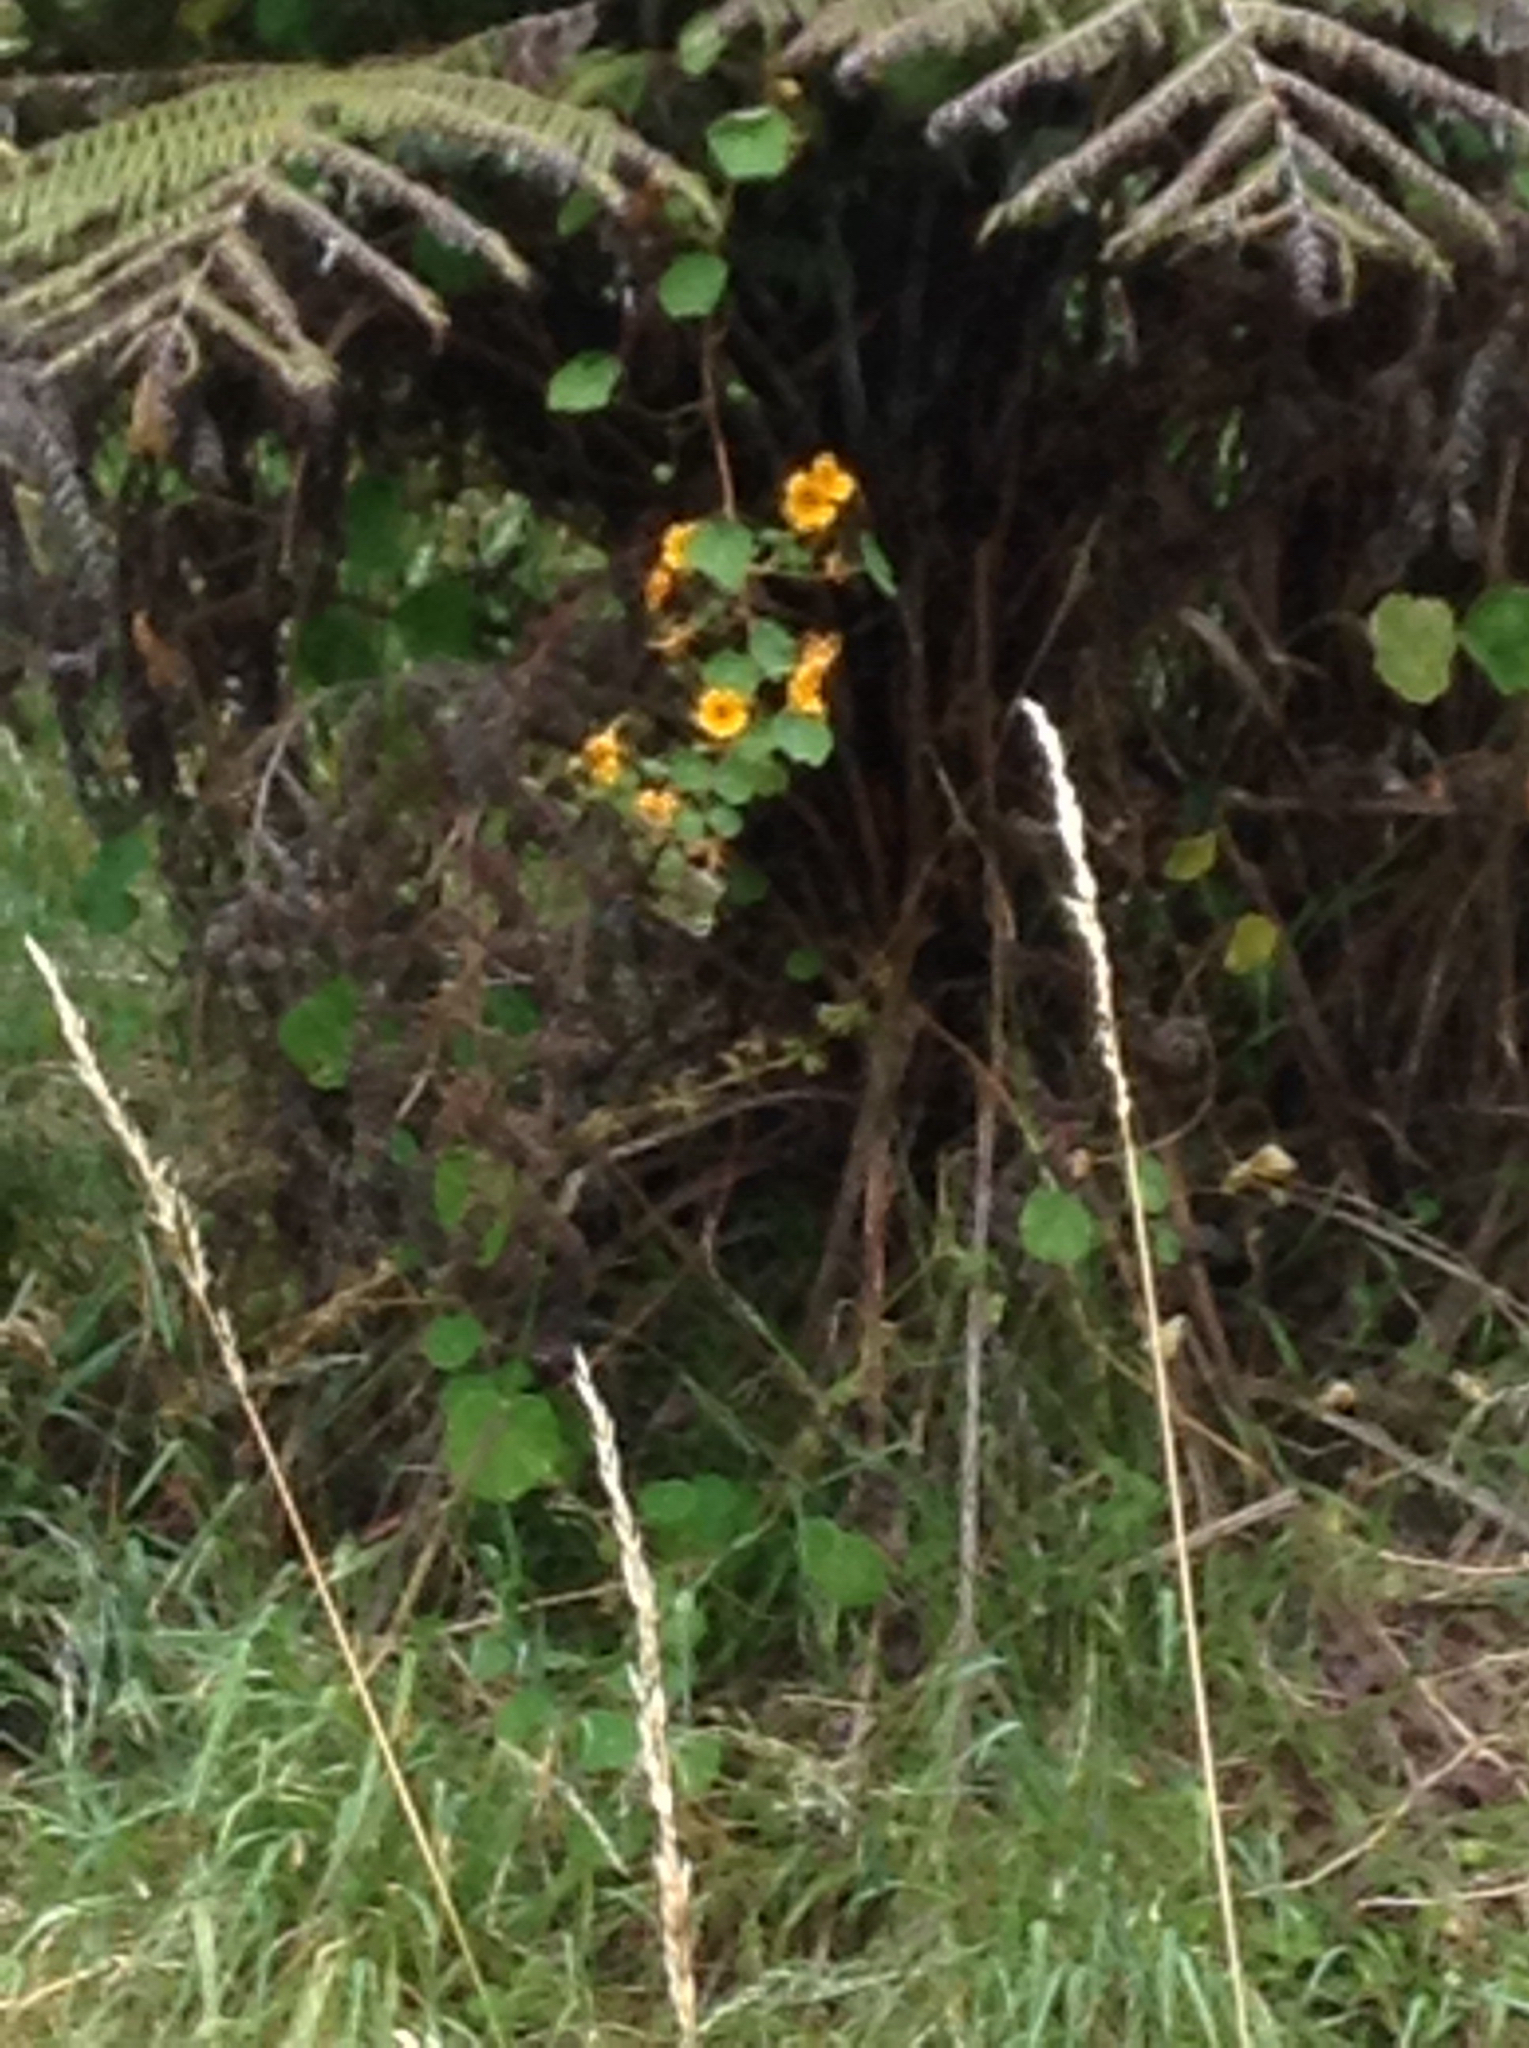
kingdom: Plantae
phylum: Tracheophyta
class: Magnoliopsida
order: Lamiales
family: Acanthaceae
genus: Thunbergia
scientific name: Thunbergia alata
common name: Blackeyed susan vine
